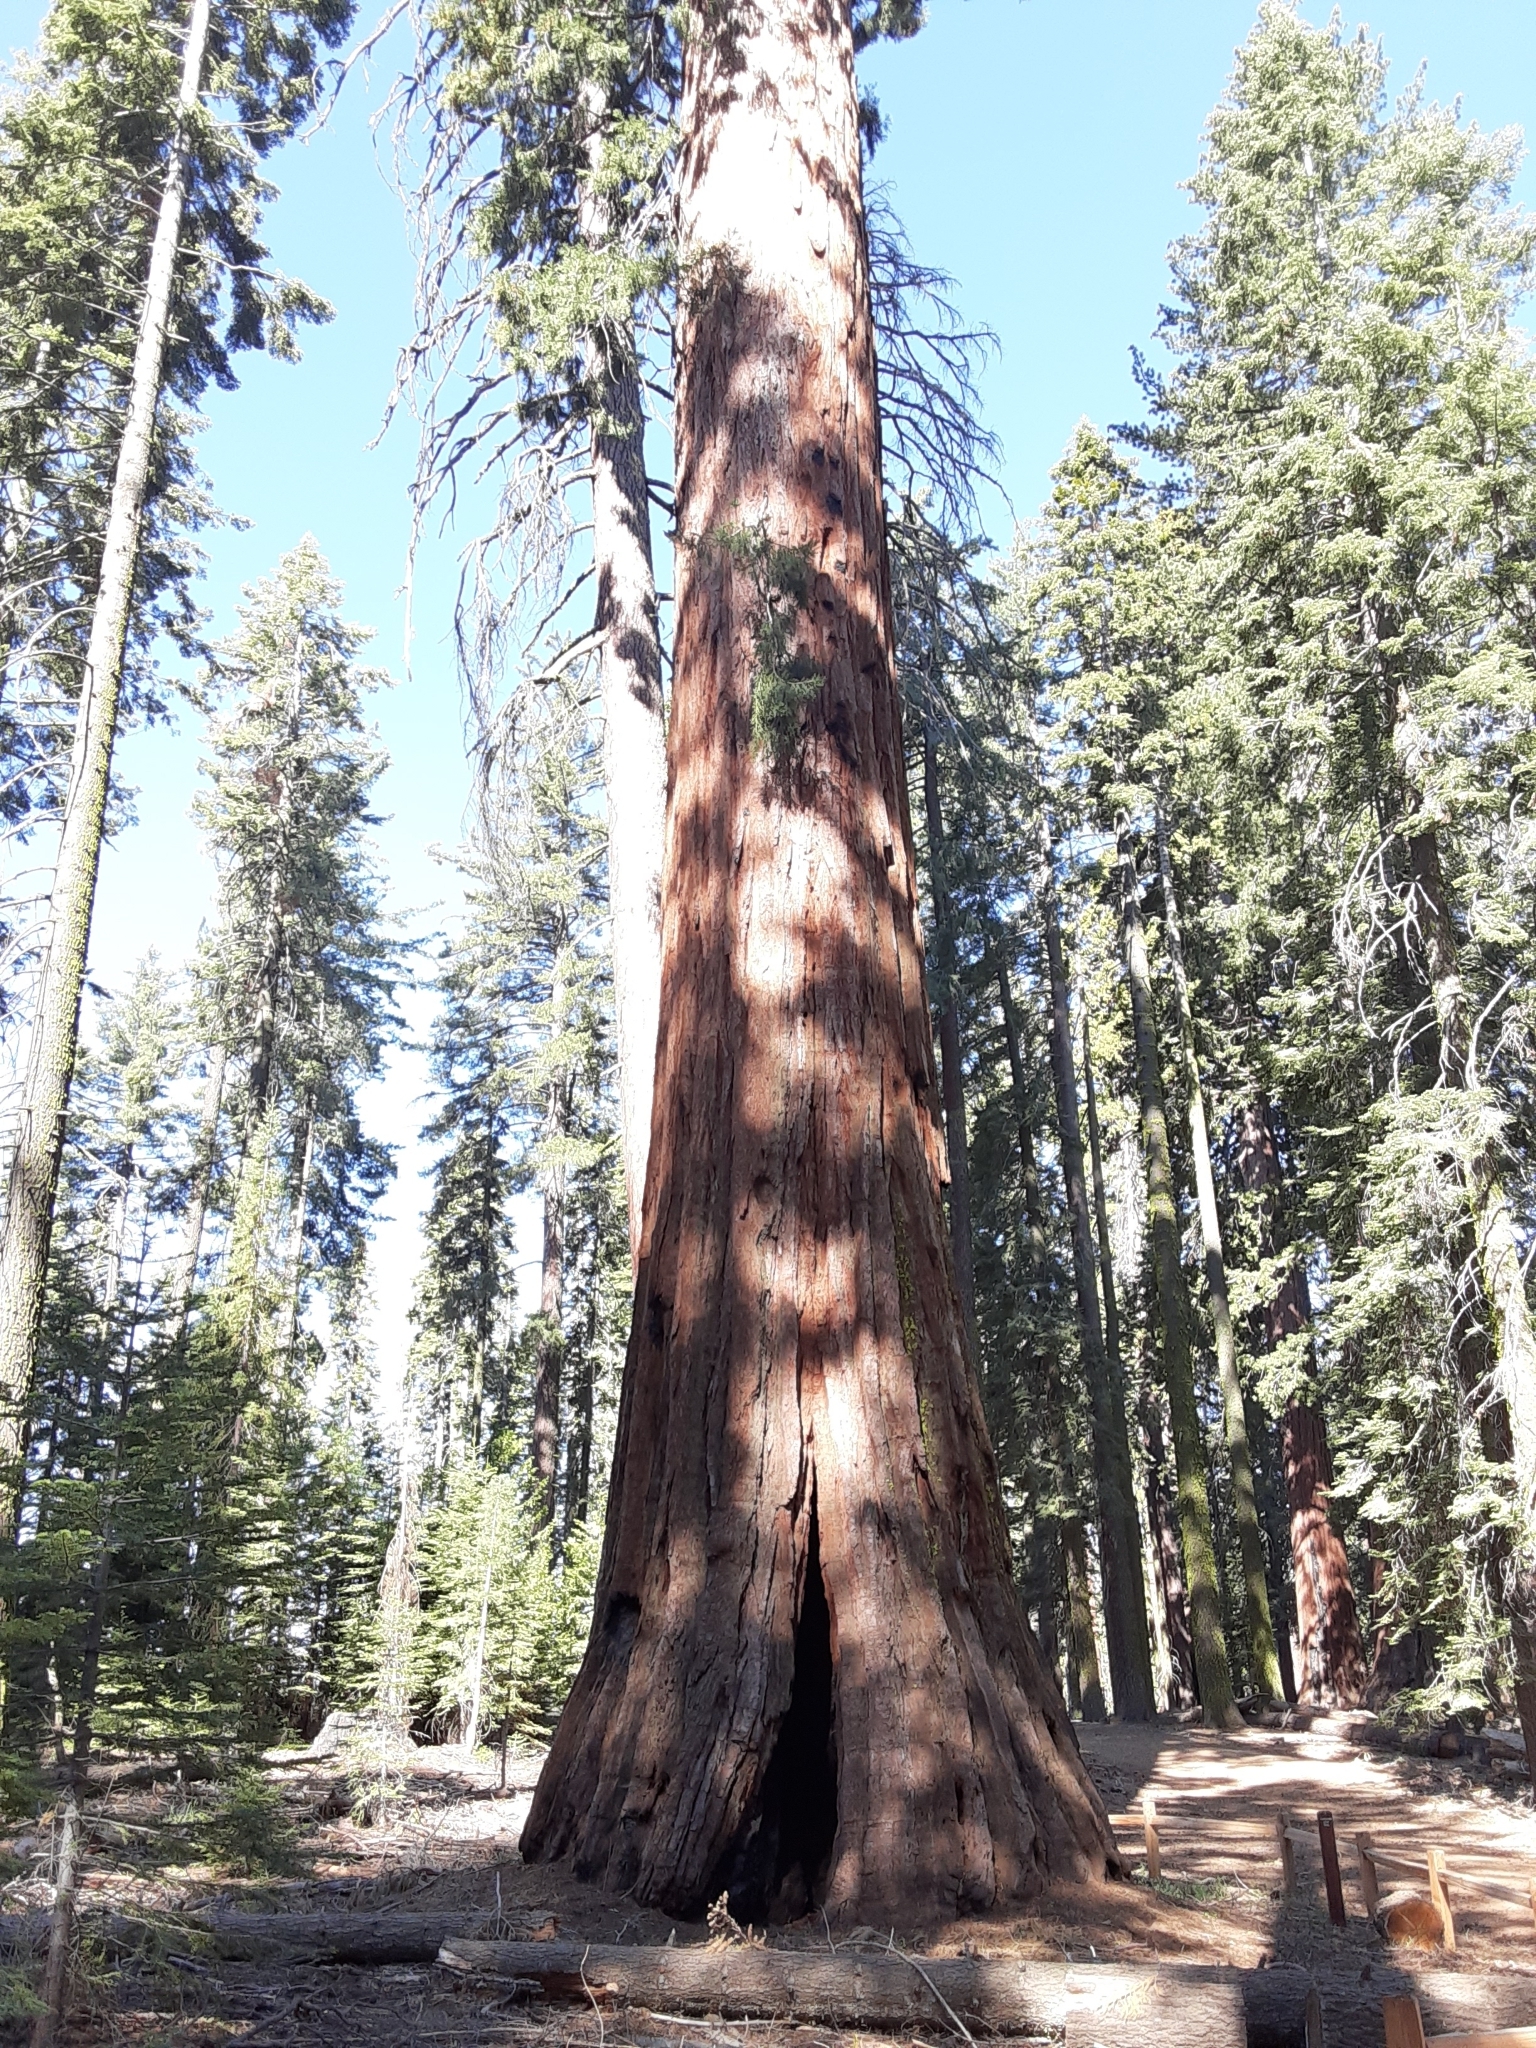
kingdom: Plantae
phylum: Tracheophyta
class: Pinopsida
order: Pinales
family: Cupressaceae
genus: Sequoiadendron
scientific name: Sequoiadendron giganteum
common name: Wellingtonia
